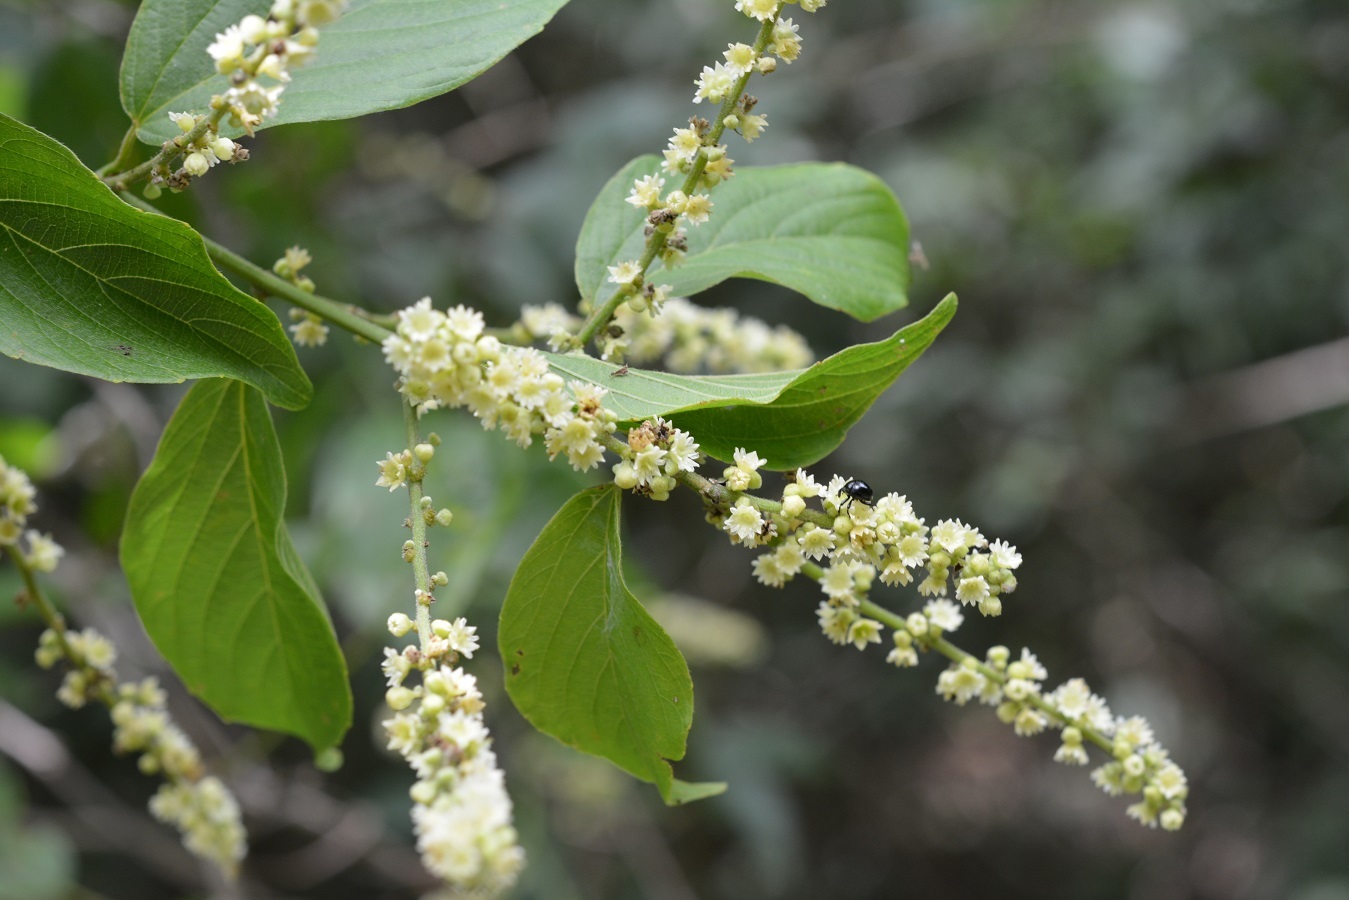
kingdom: Plantae
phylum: Tracheophyta
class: Magnoliopsida
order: Rosales
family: Rhamnaceae
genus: Gouania
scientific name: Gouania lupuloides
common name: Chewstick
